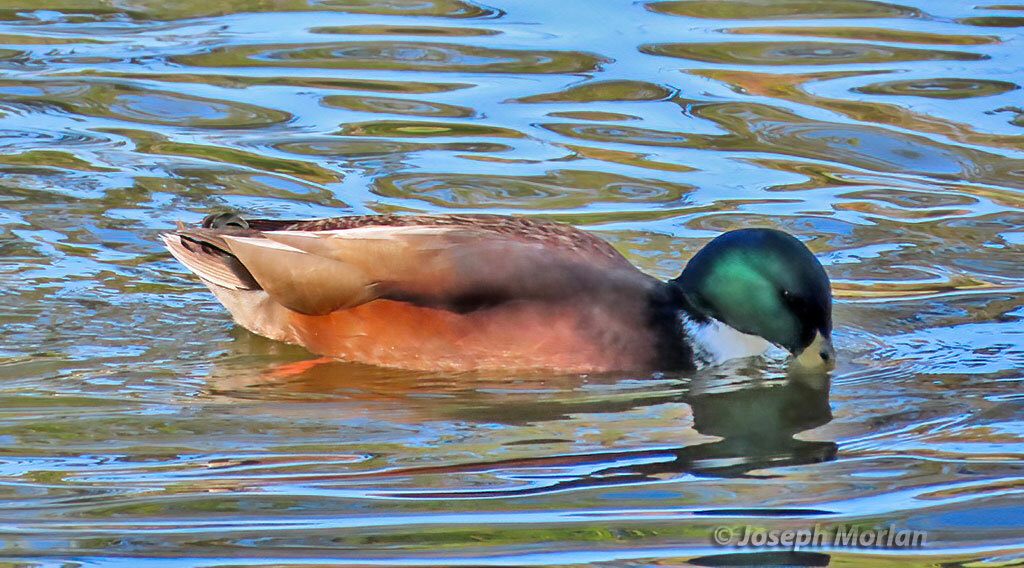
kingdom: Animalia
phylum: Chordata
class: Aves
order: Anseriformes
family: Anatidae
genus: Anas
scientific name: Anas platyrhynchos
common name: Mallard
